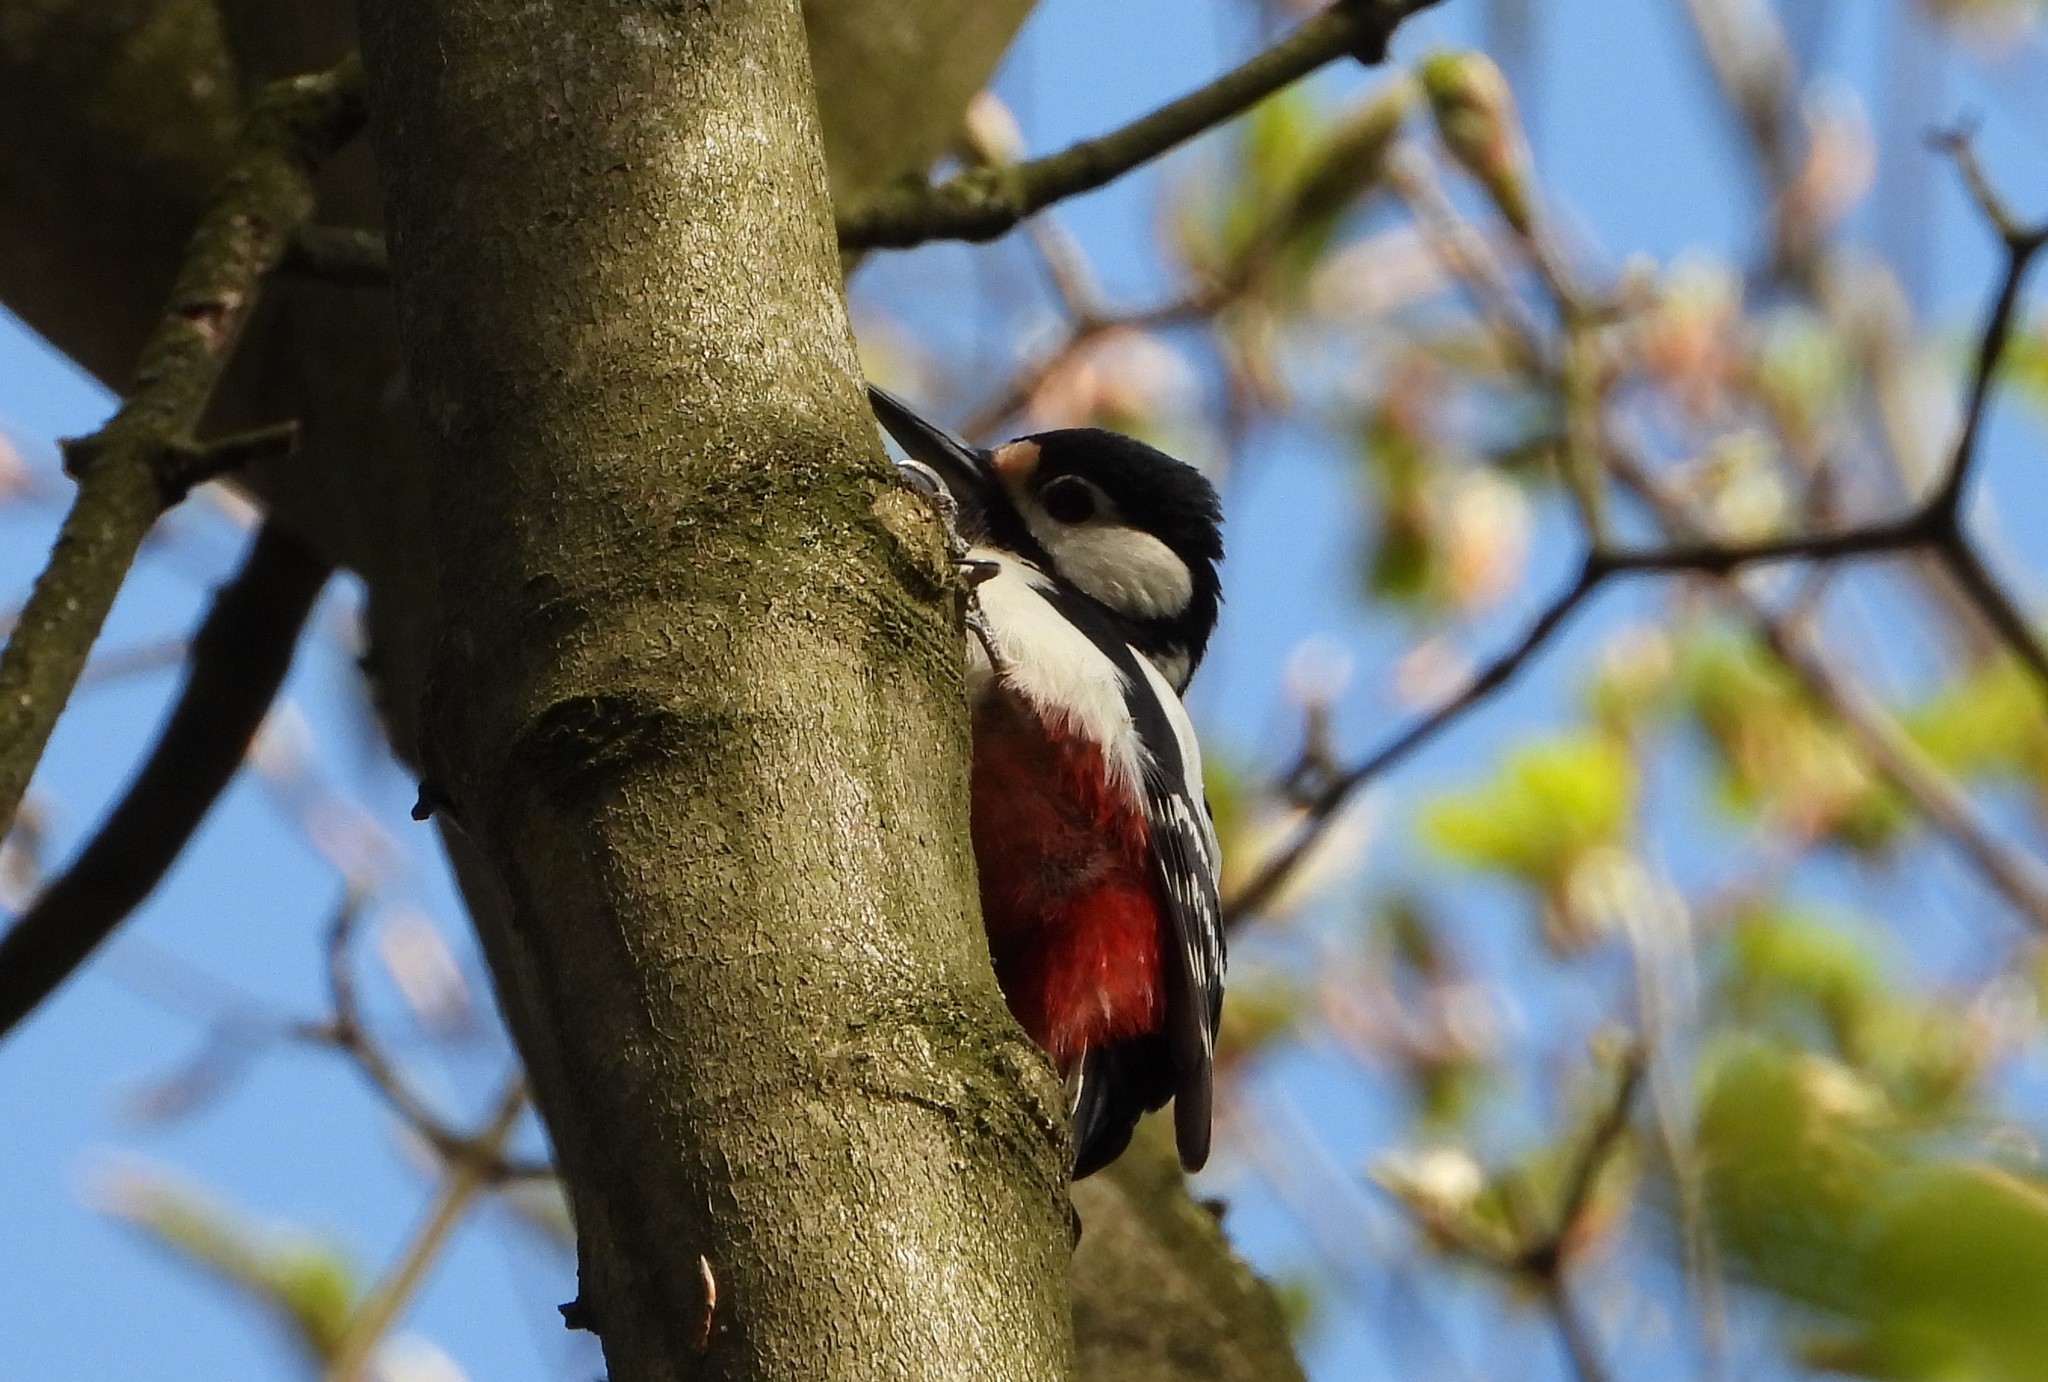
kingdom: Animalia
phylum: Chordata
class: Aves
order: Piciformes
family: Picidae
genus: Dendrocopos
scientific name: Dendrocopos major
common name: Great spotted woodpecker
